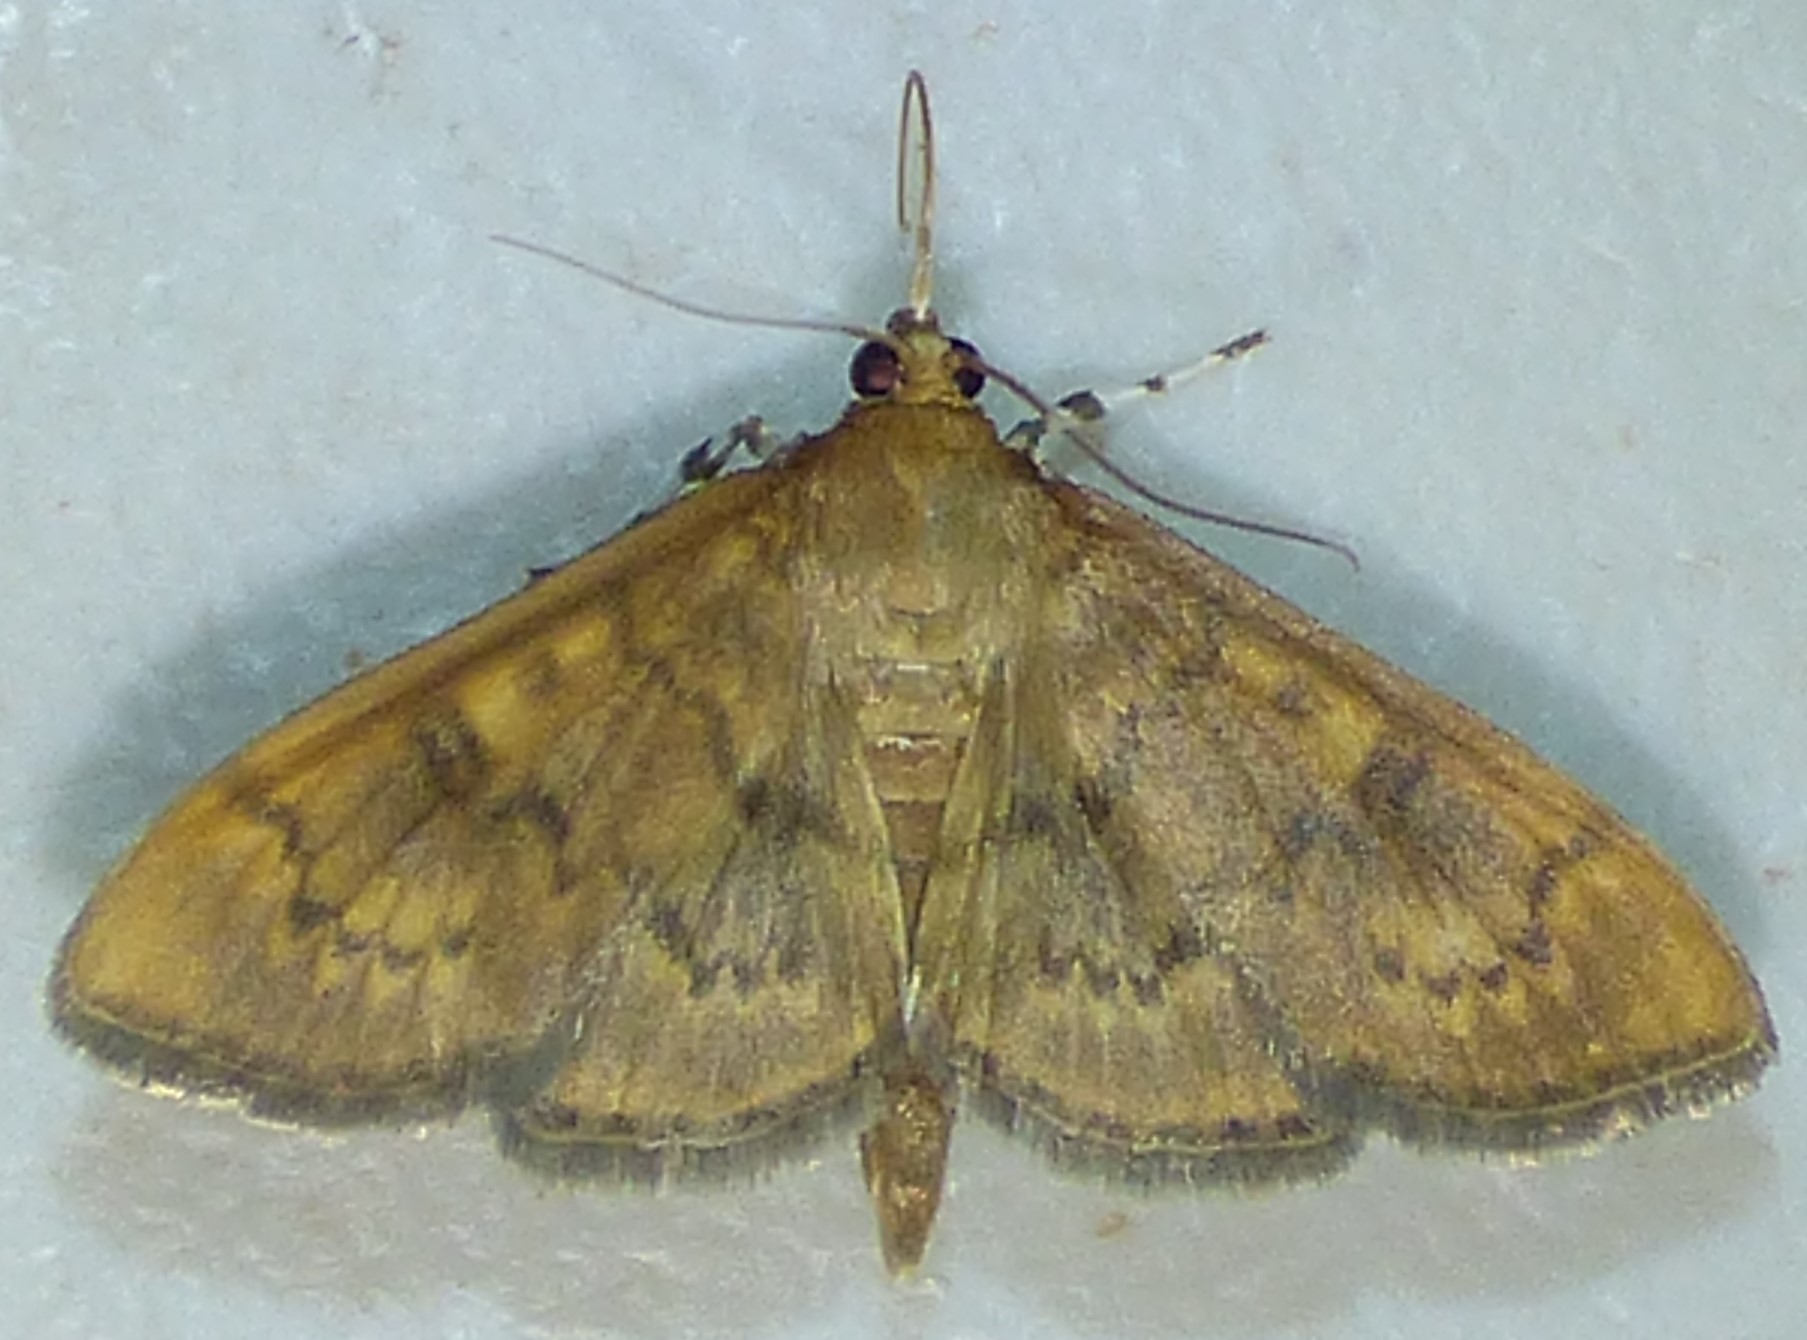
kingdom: Animalia
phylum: Arthropoda
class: Insecta
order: Lepidoptera
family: Crambidae
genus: Syllepte
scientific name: Syllepte obscuralis
